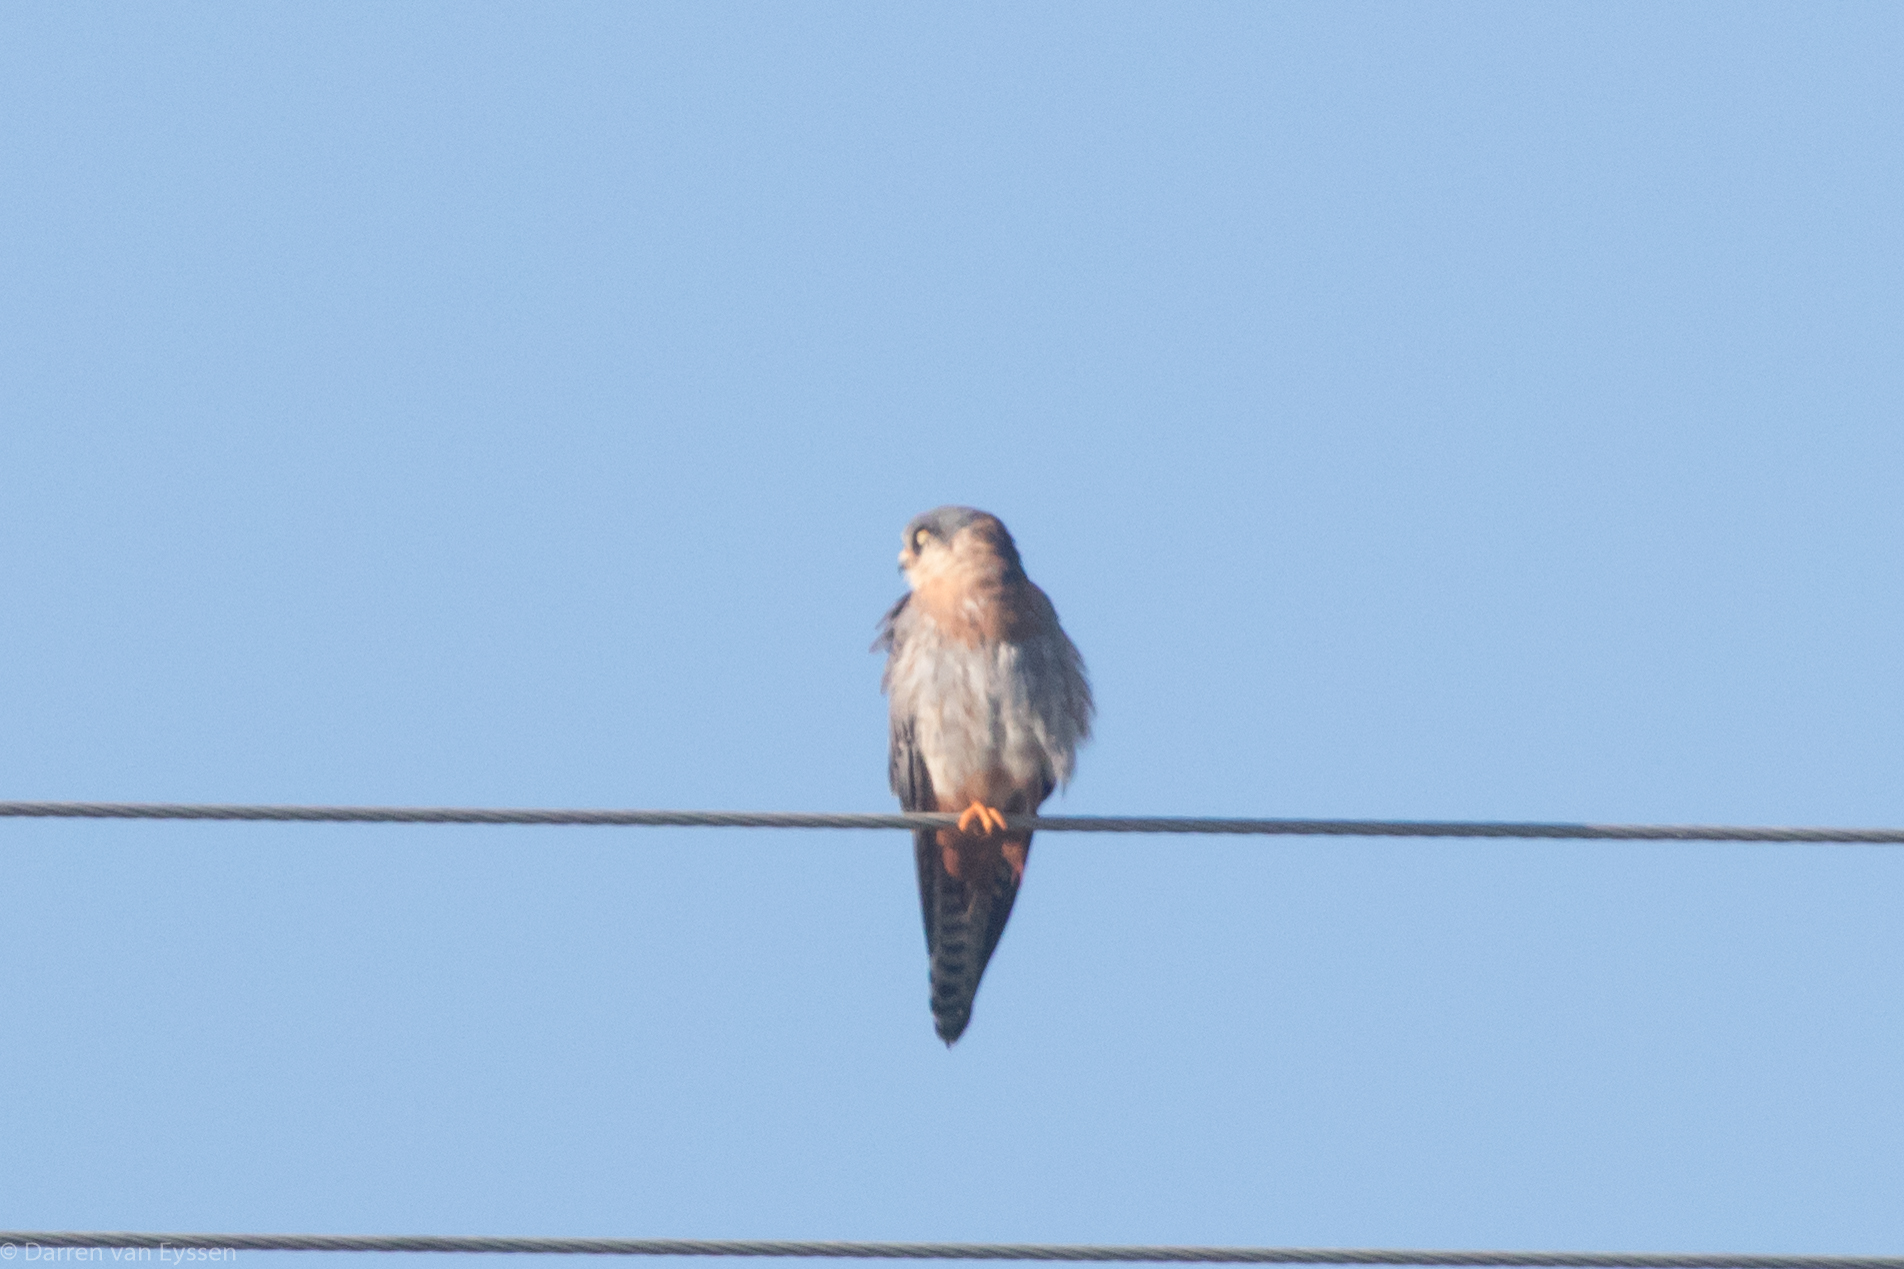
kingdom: Animalia
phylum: Chordata
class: Aves
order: Falconiformes
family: Falconidae
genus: Falco
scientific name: Falco vespertinus
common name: Red-footed falcon
